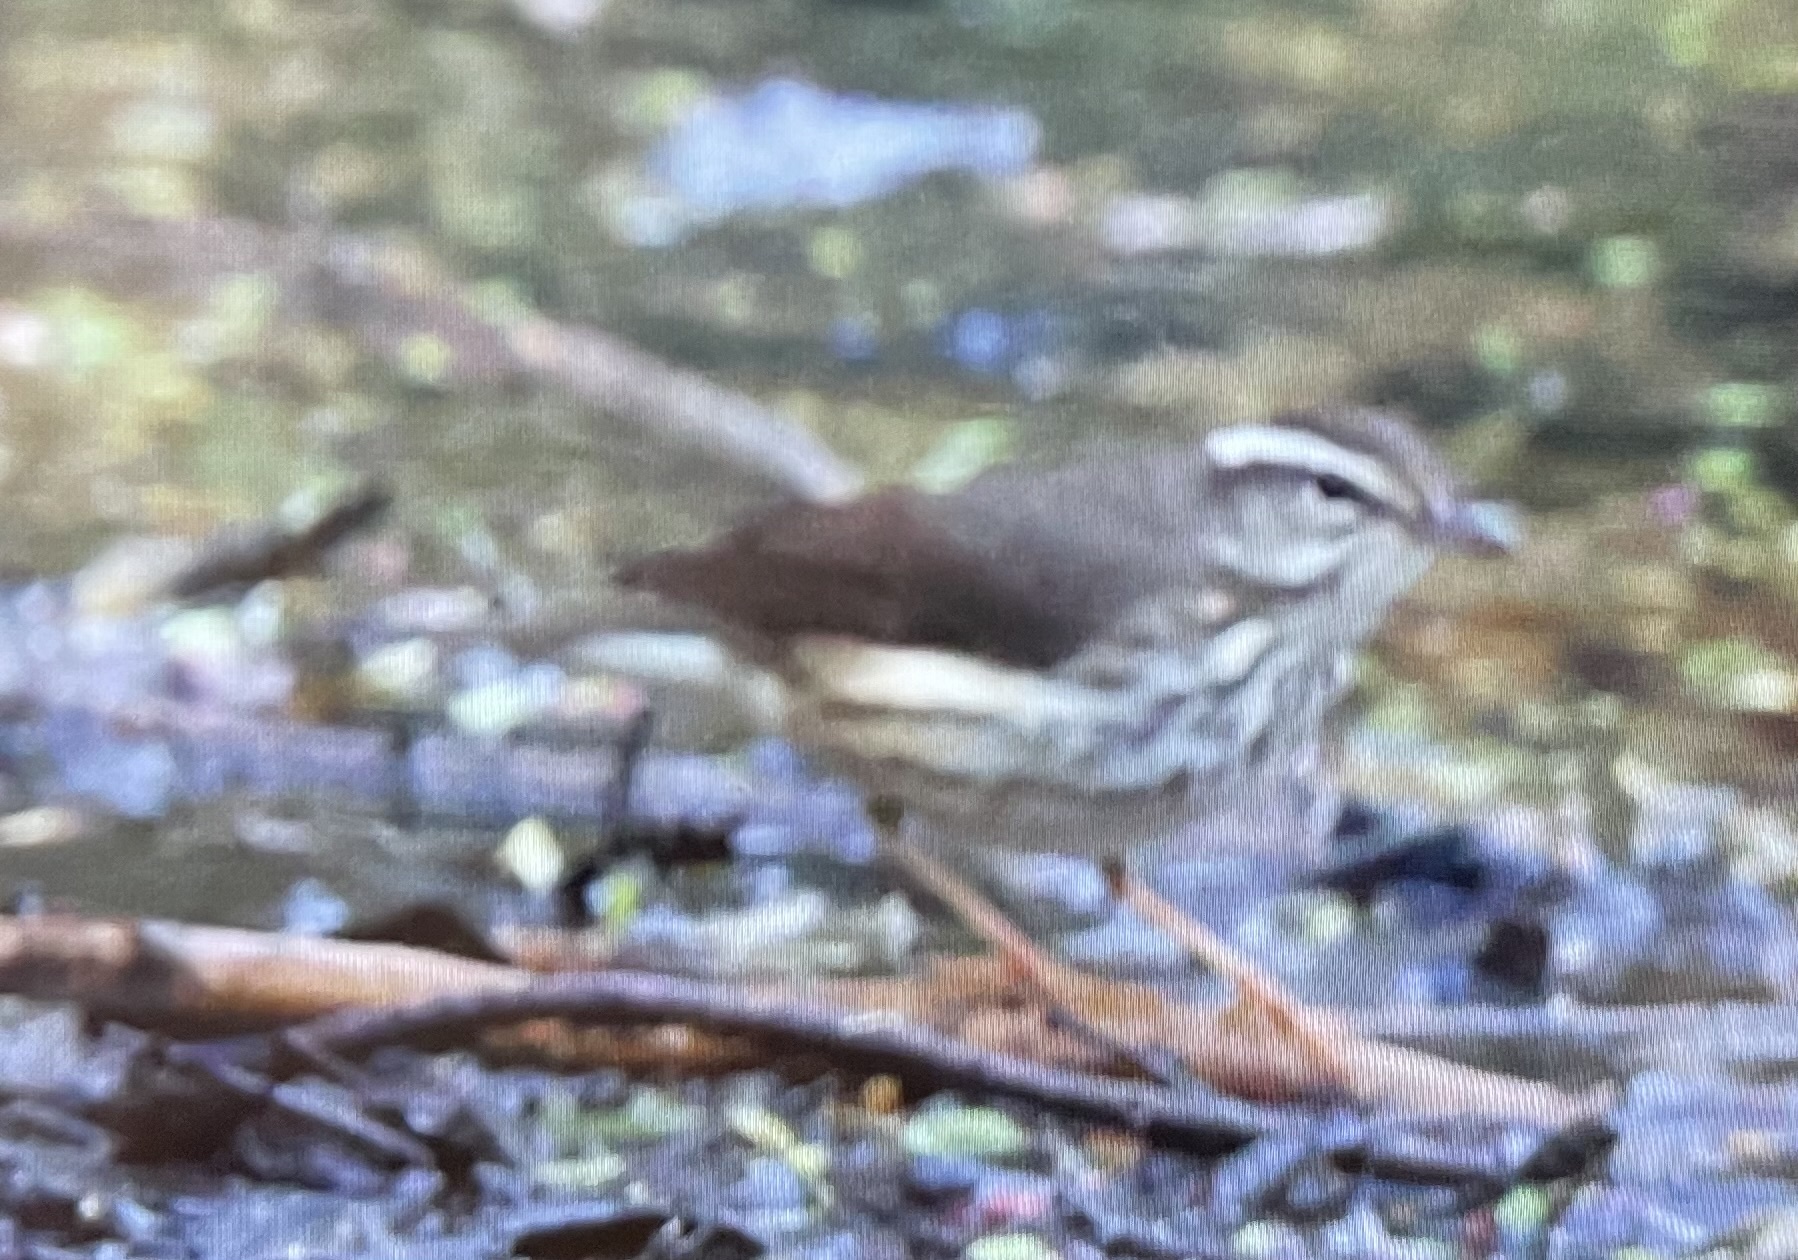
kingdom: Animalia
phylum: Chordata
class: Aves
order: Passeriformes
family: Parulidae
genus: Parkesia
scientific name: Parkesia motacilla
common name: Louisiana waterthrush
